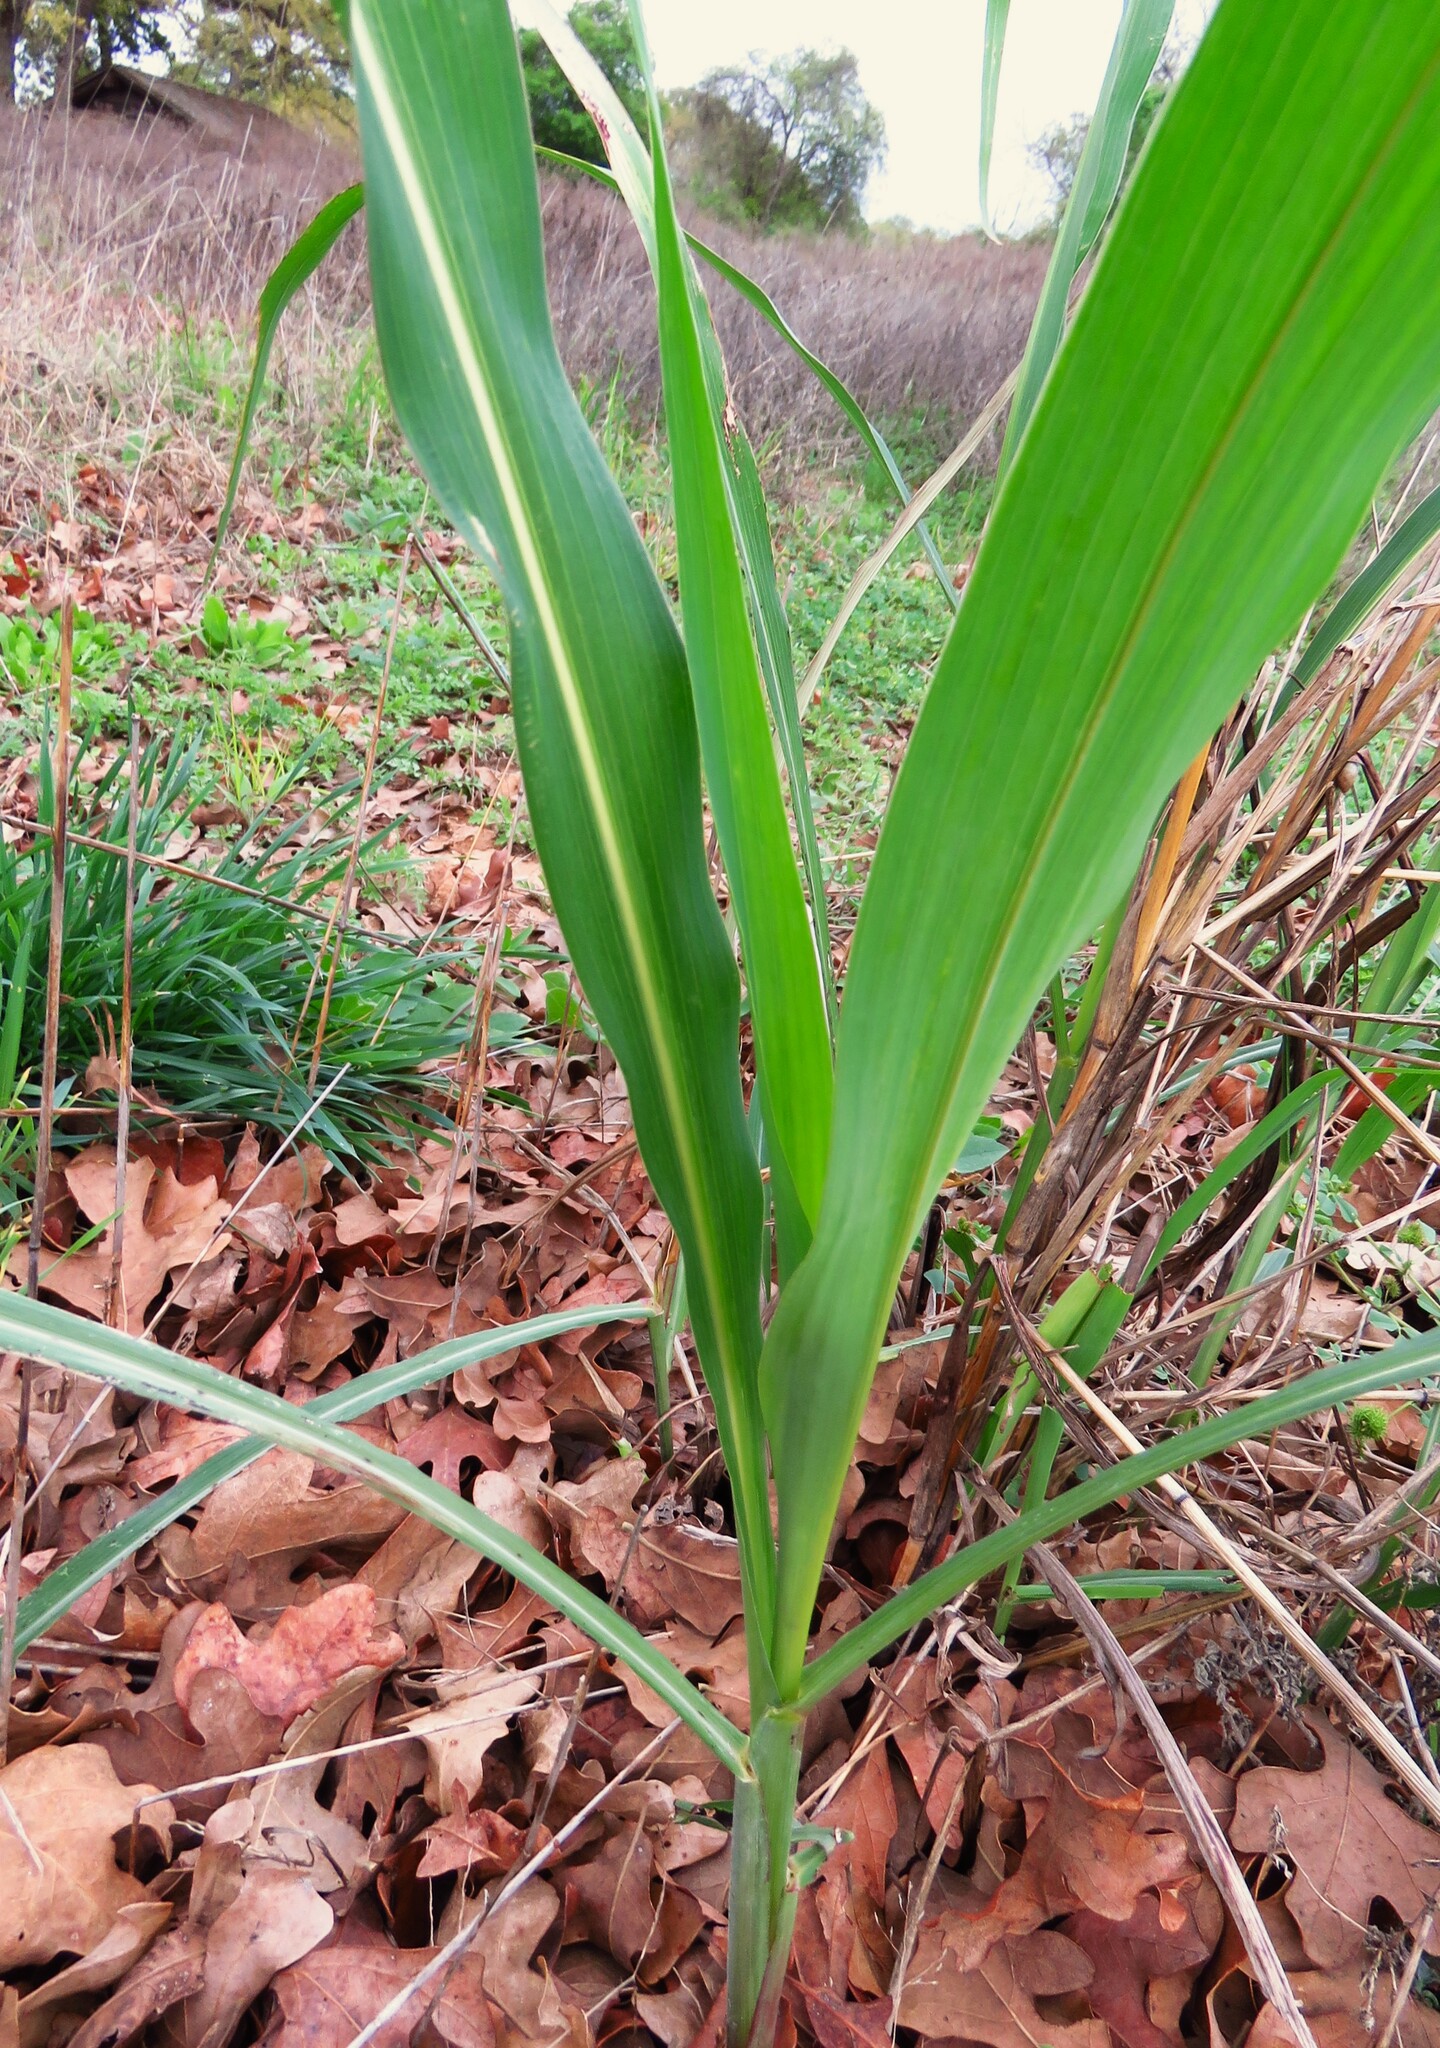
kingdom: Plantae
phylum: Tracheophyta
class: Liliopsida
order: Poales
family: Poaceae
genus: Sorghum
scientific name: Sorghum halepense
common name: Johnson-grass
